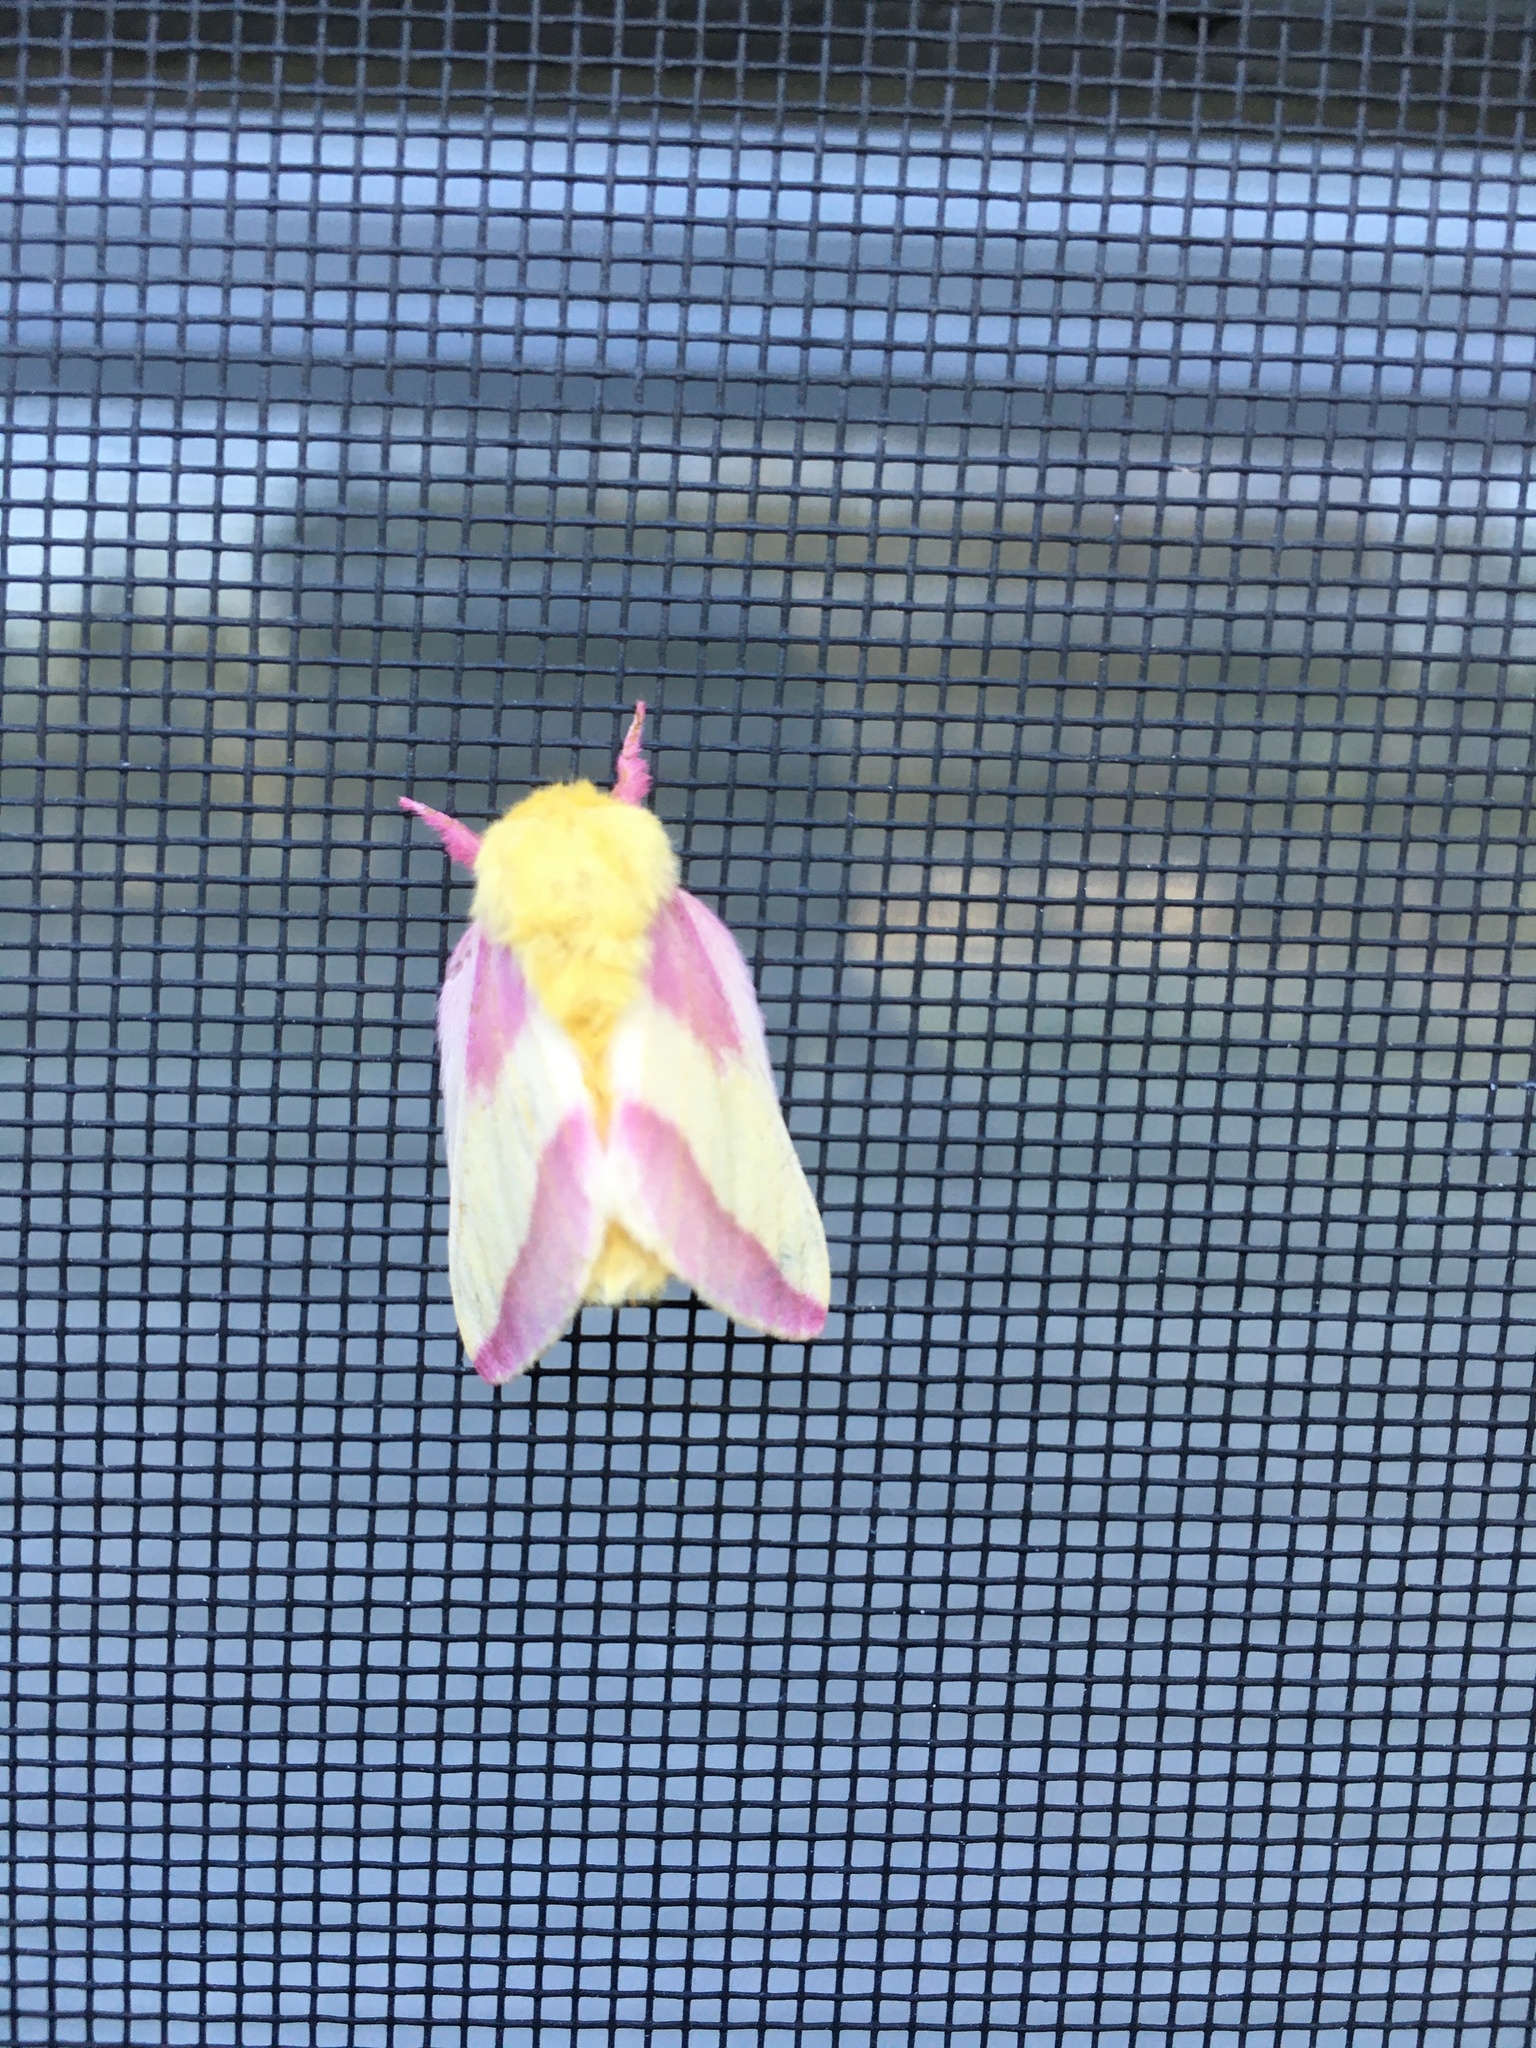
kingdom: Animalia
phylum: Arthropoda
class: Insecta
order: Lepidoptera
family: Saturniidae
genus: Dryocampa
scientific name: Dryocampa rubicunda
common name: Rosy maple moth
